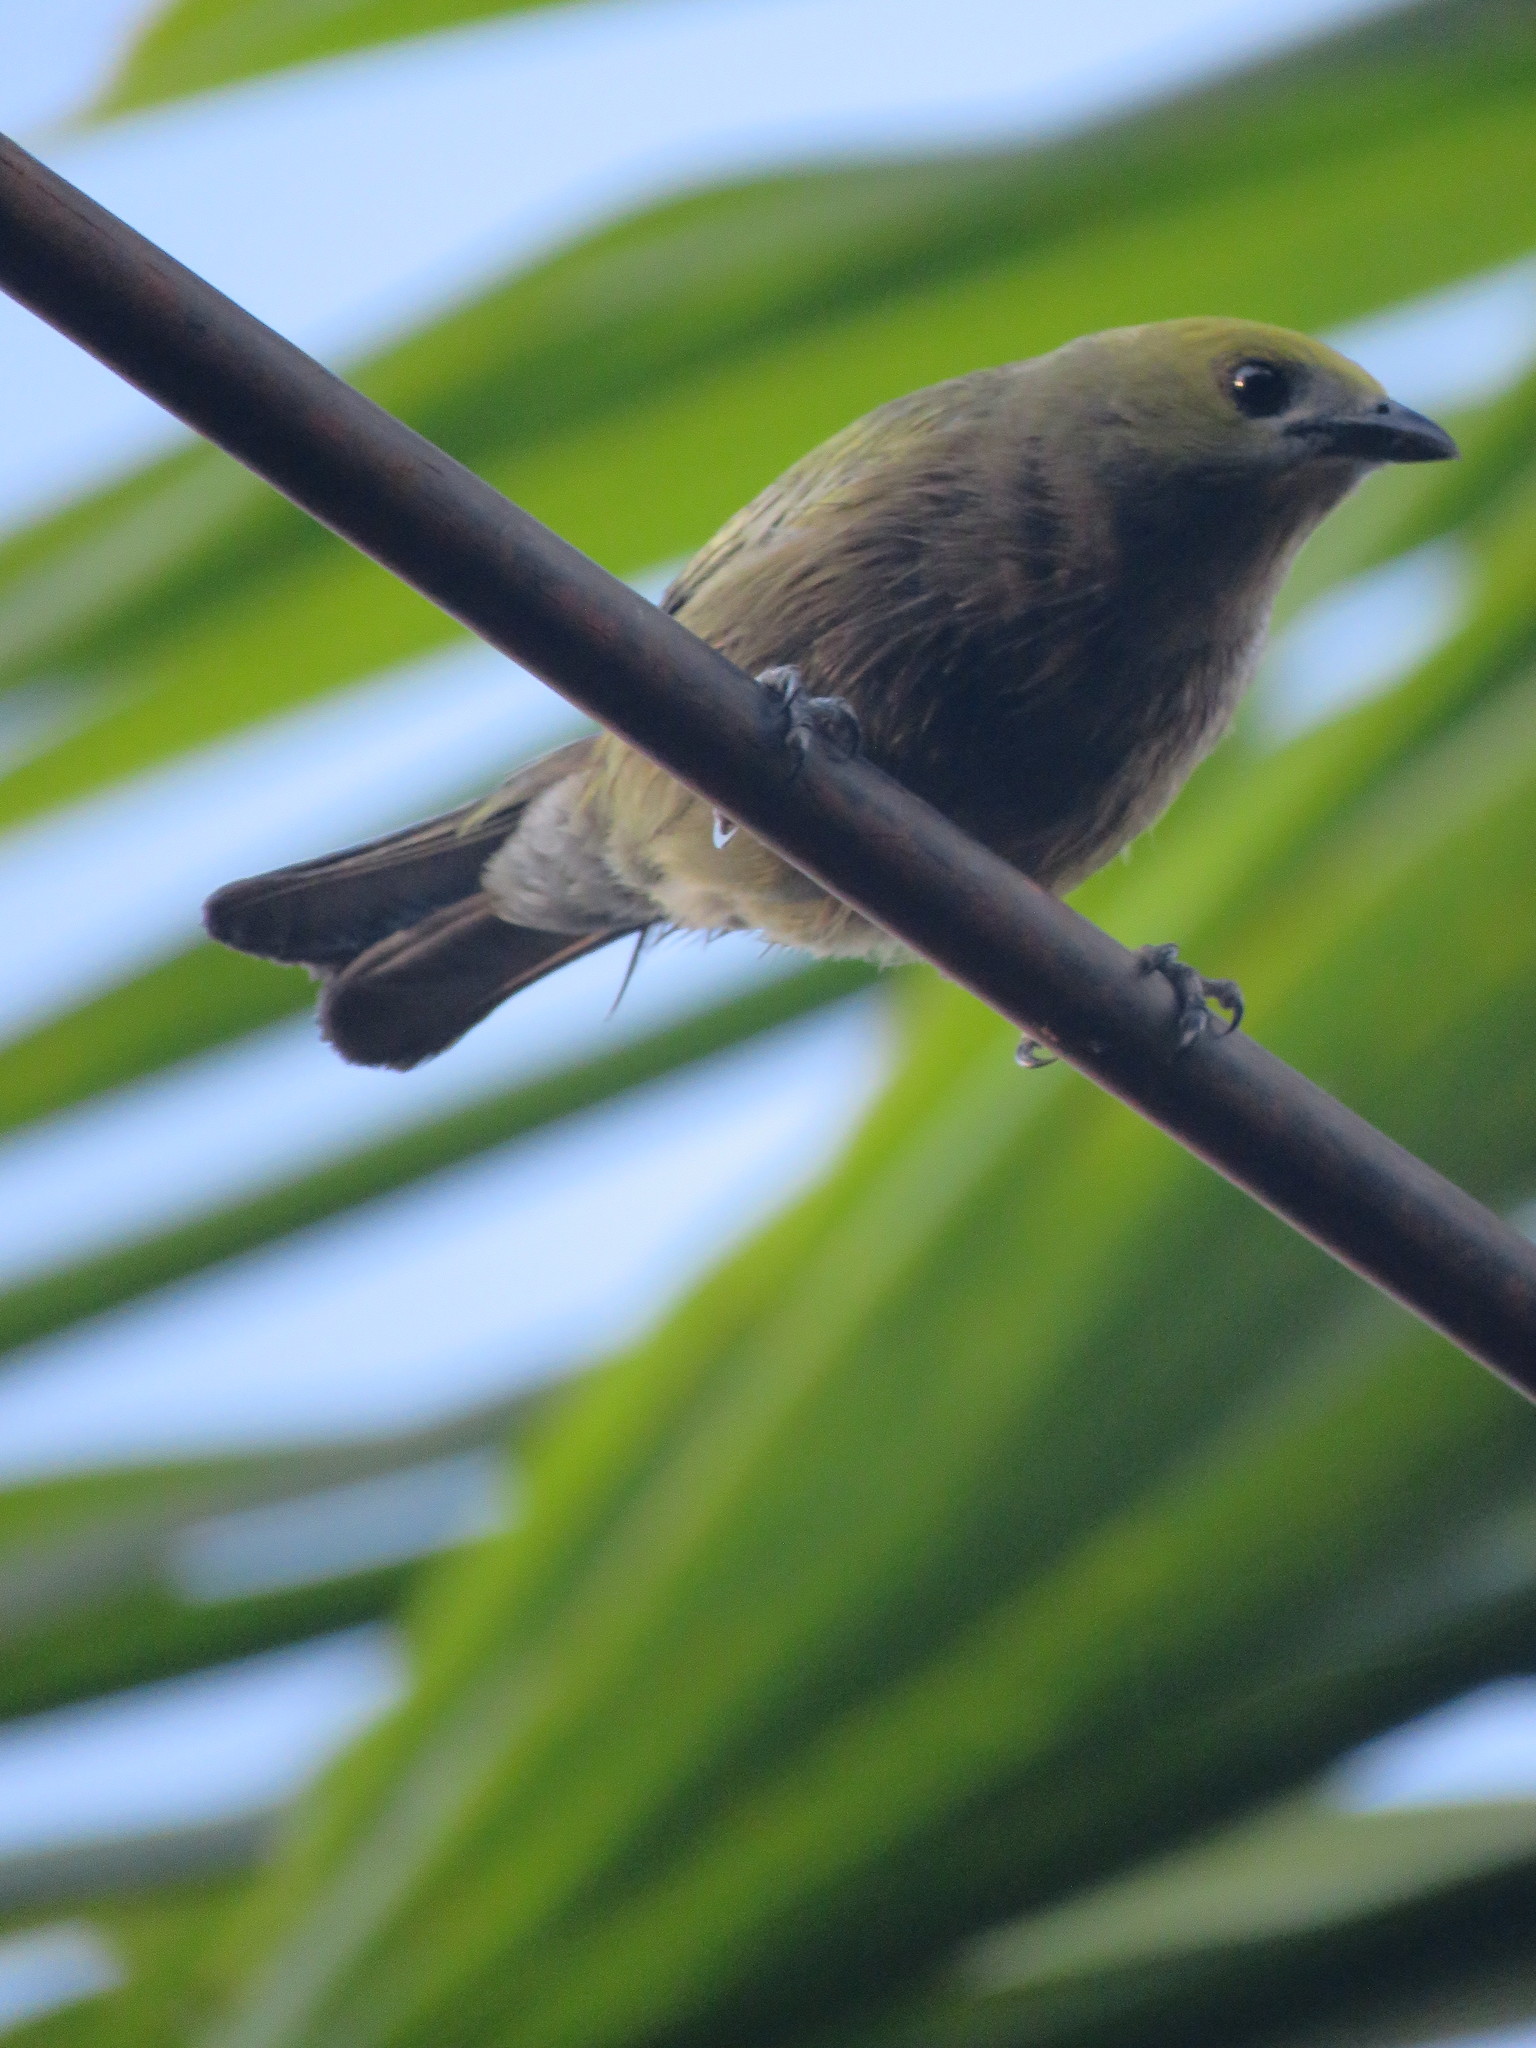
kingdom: Animalia
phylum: Chordata
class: Aves
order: Passeriformes
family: Thraupidae
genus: Thraupis
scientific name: Thraupis palmarum
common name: Palm tanager
